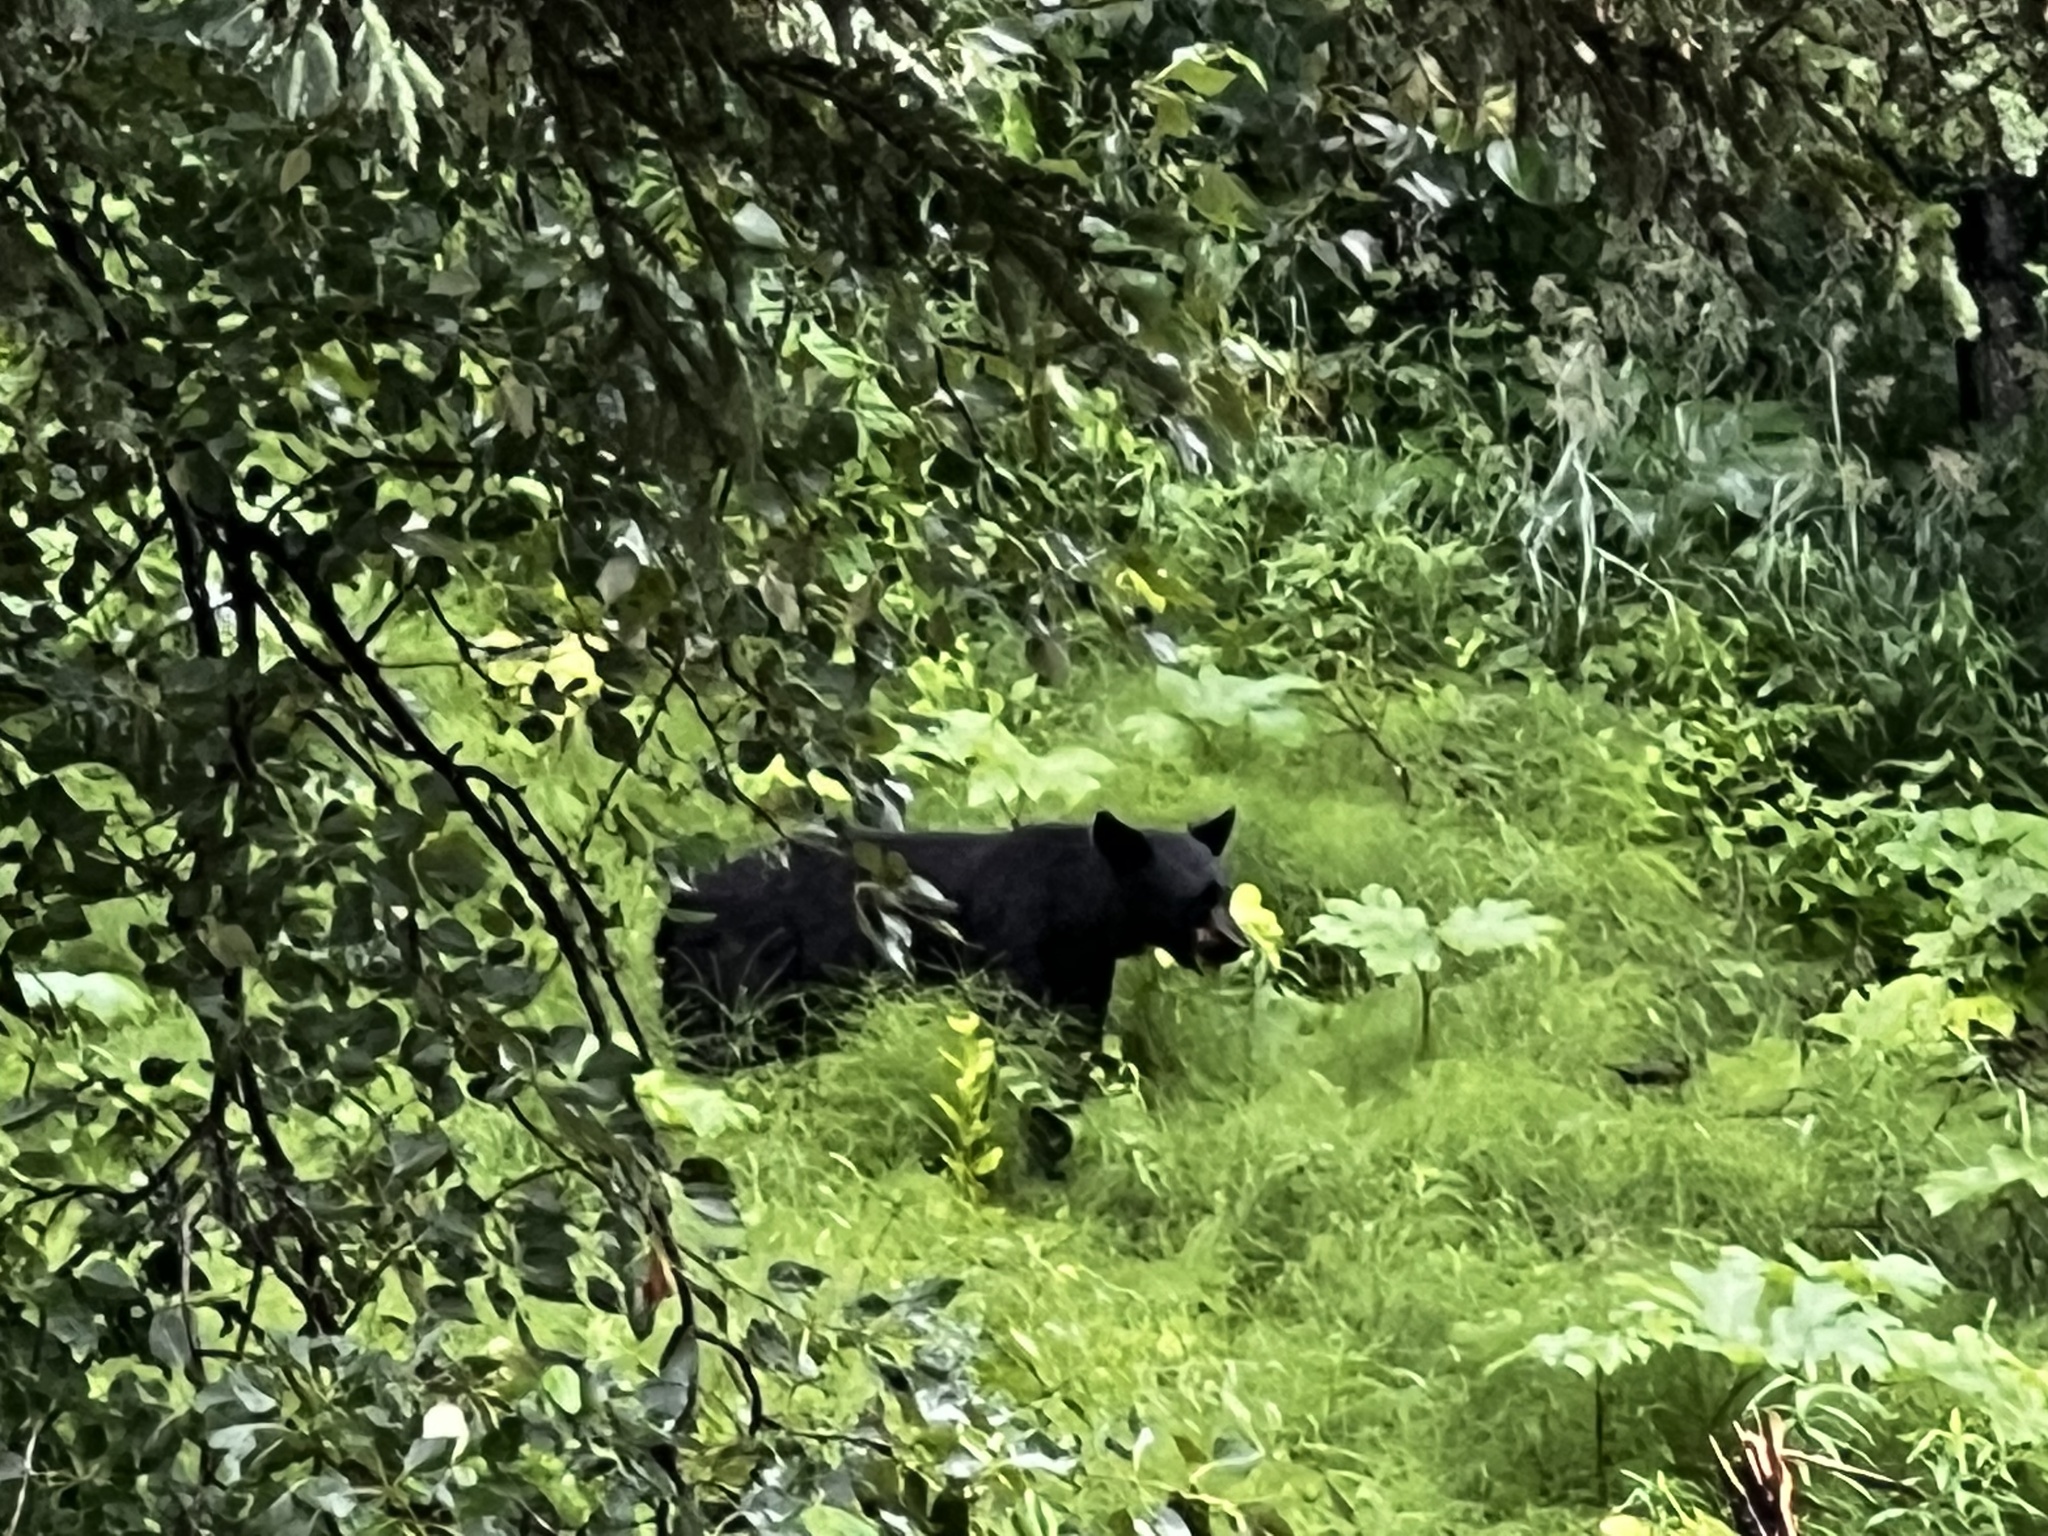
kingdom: Animalia
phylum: Chordata
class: Mammalia
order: Carnivora
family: Ursidae
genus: Ursus
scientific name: Ursus americanus
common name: American black bear
